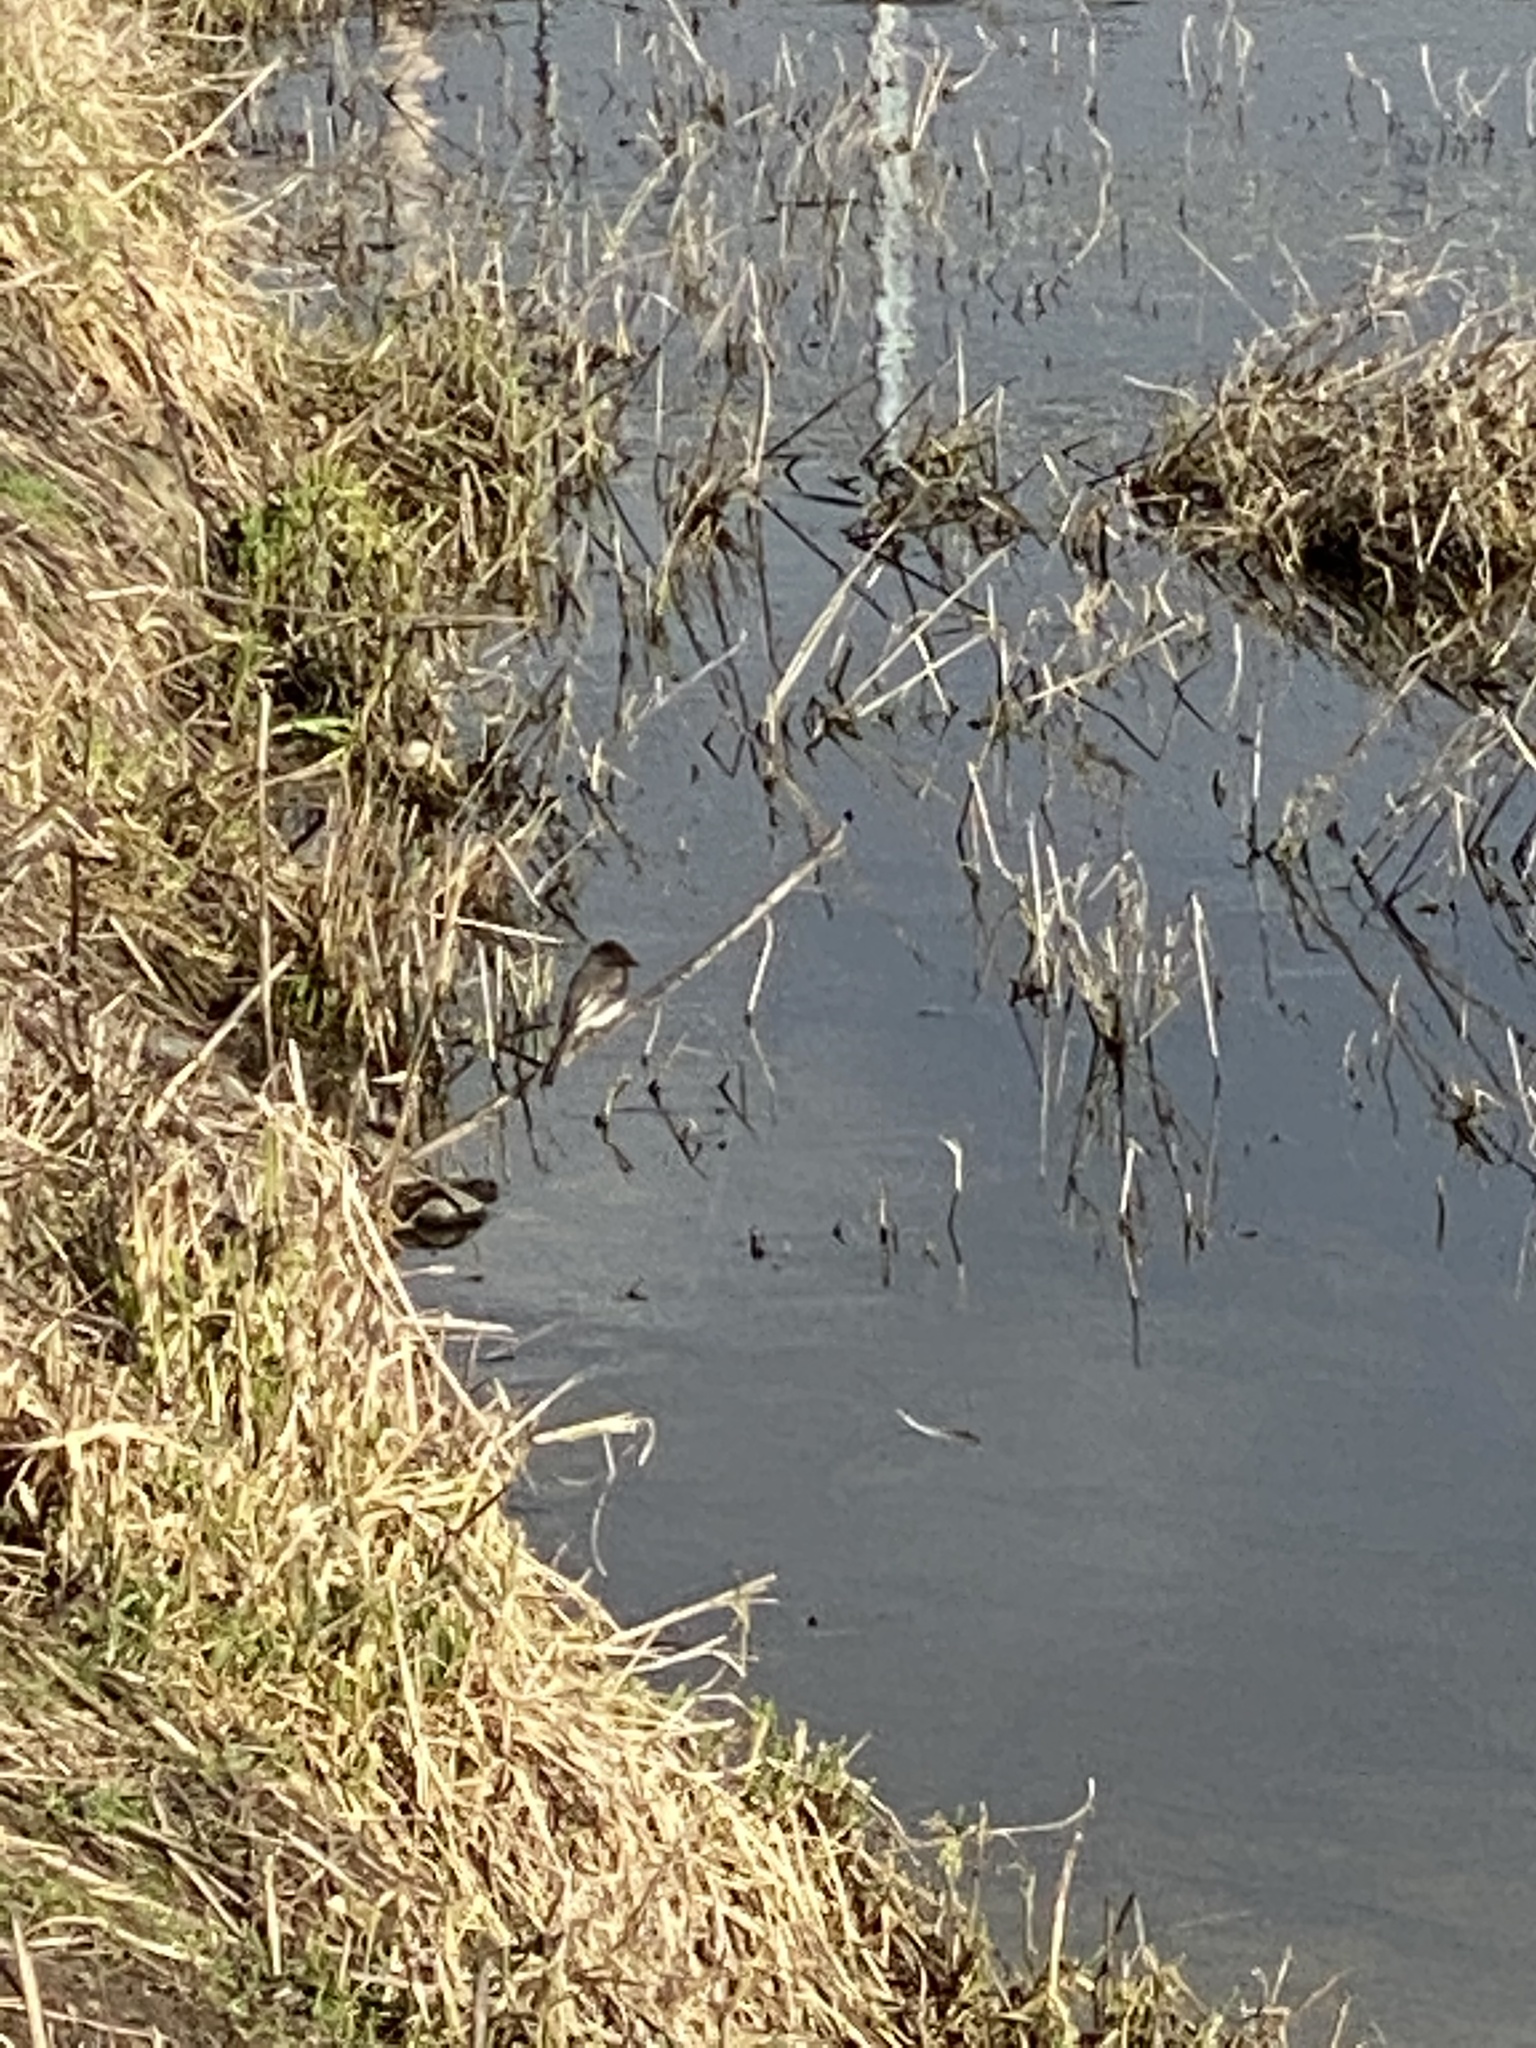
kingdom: Animalia
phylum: Chordata
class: Aves
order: Passeriformes
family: Tyrannidae
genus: Sayornis
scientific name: Sayornis nigricans
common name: Black phoebe
